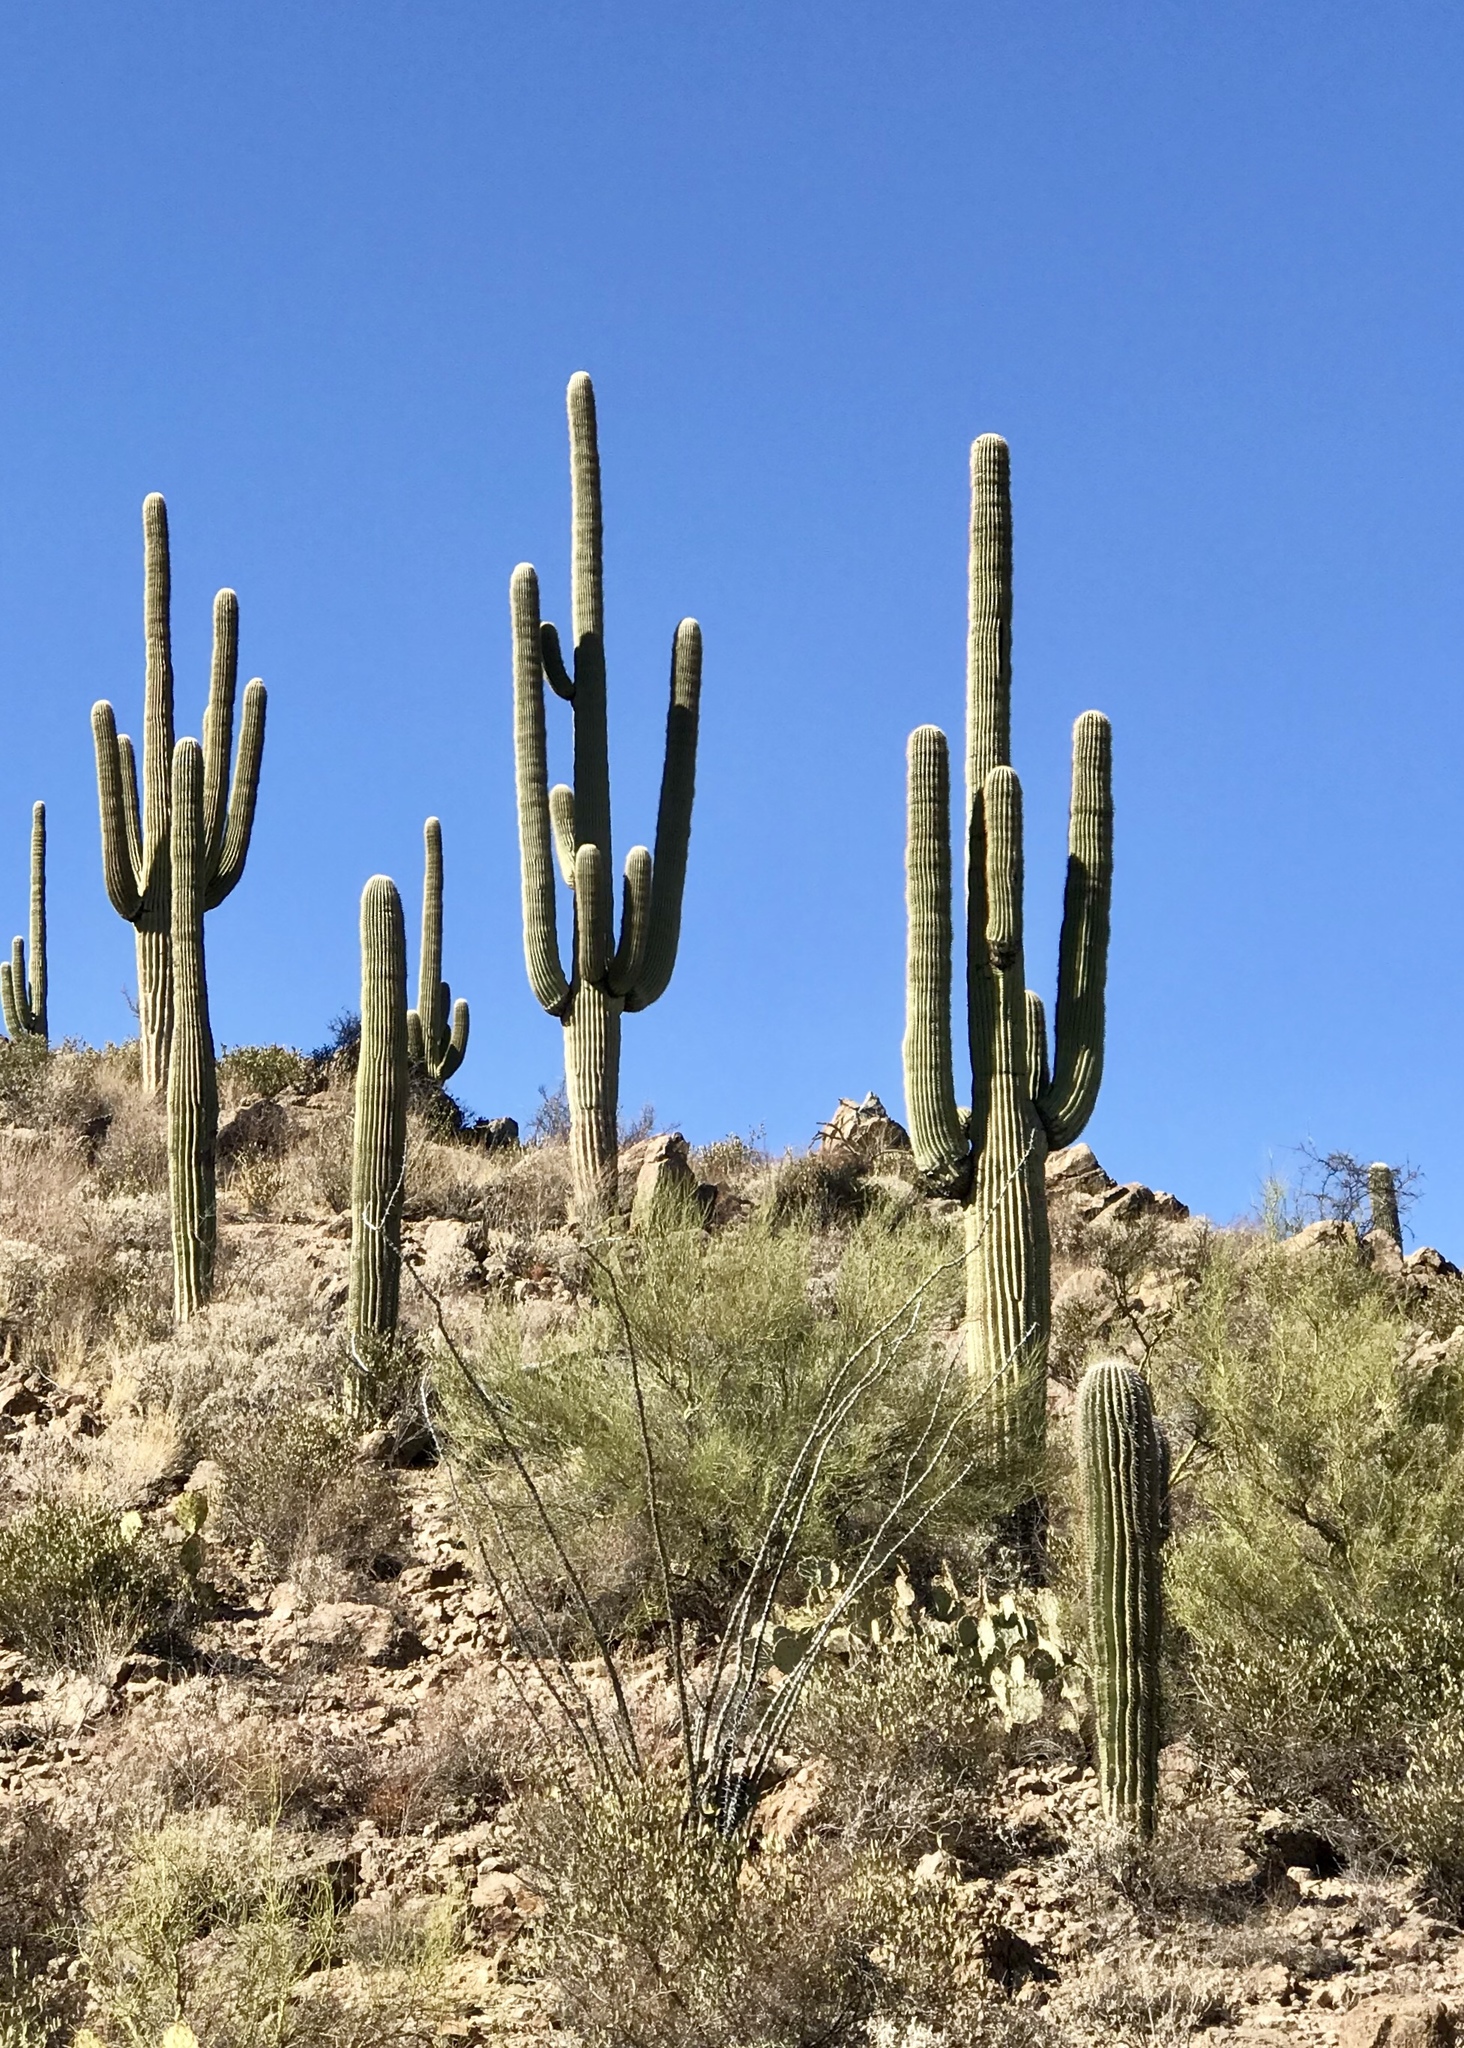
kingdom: Plantae
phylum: Tracheophyta
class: Magnoliopsida
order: Caryophyllales
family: Cactaceae
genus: Carnegiea
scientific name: Carnegiea gigantea
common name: Saguaro
